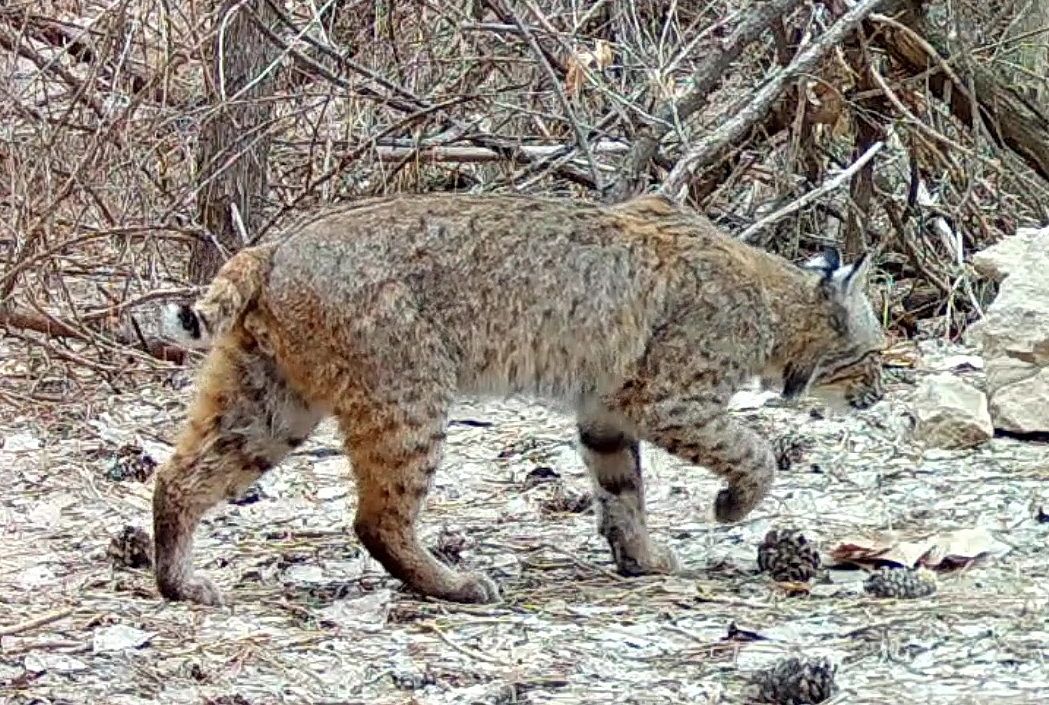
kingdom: Animalia
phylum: Chordata
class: Mammalia
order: Carnivora
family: Felidae
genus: Lynx
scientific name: Lynx rufus
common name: Bobcat
